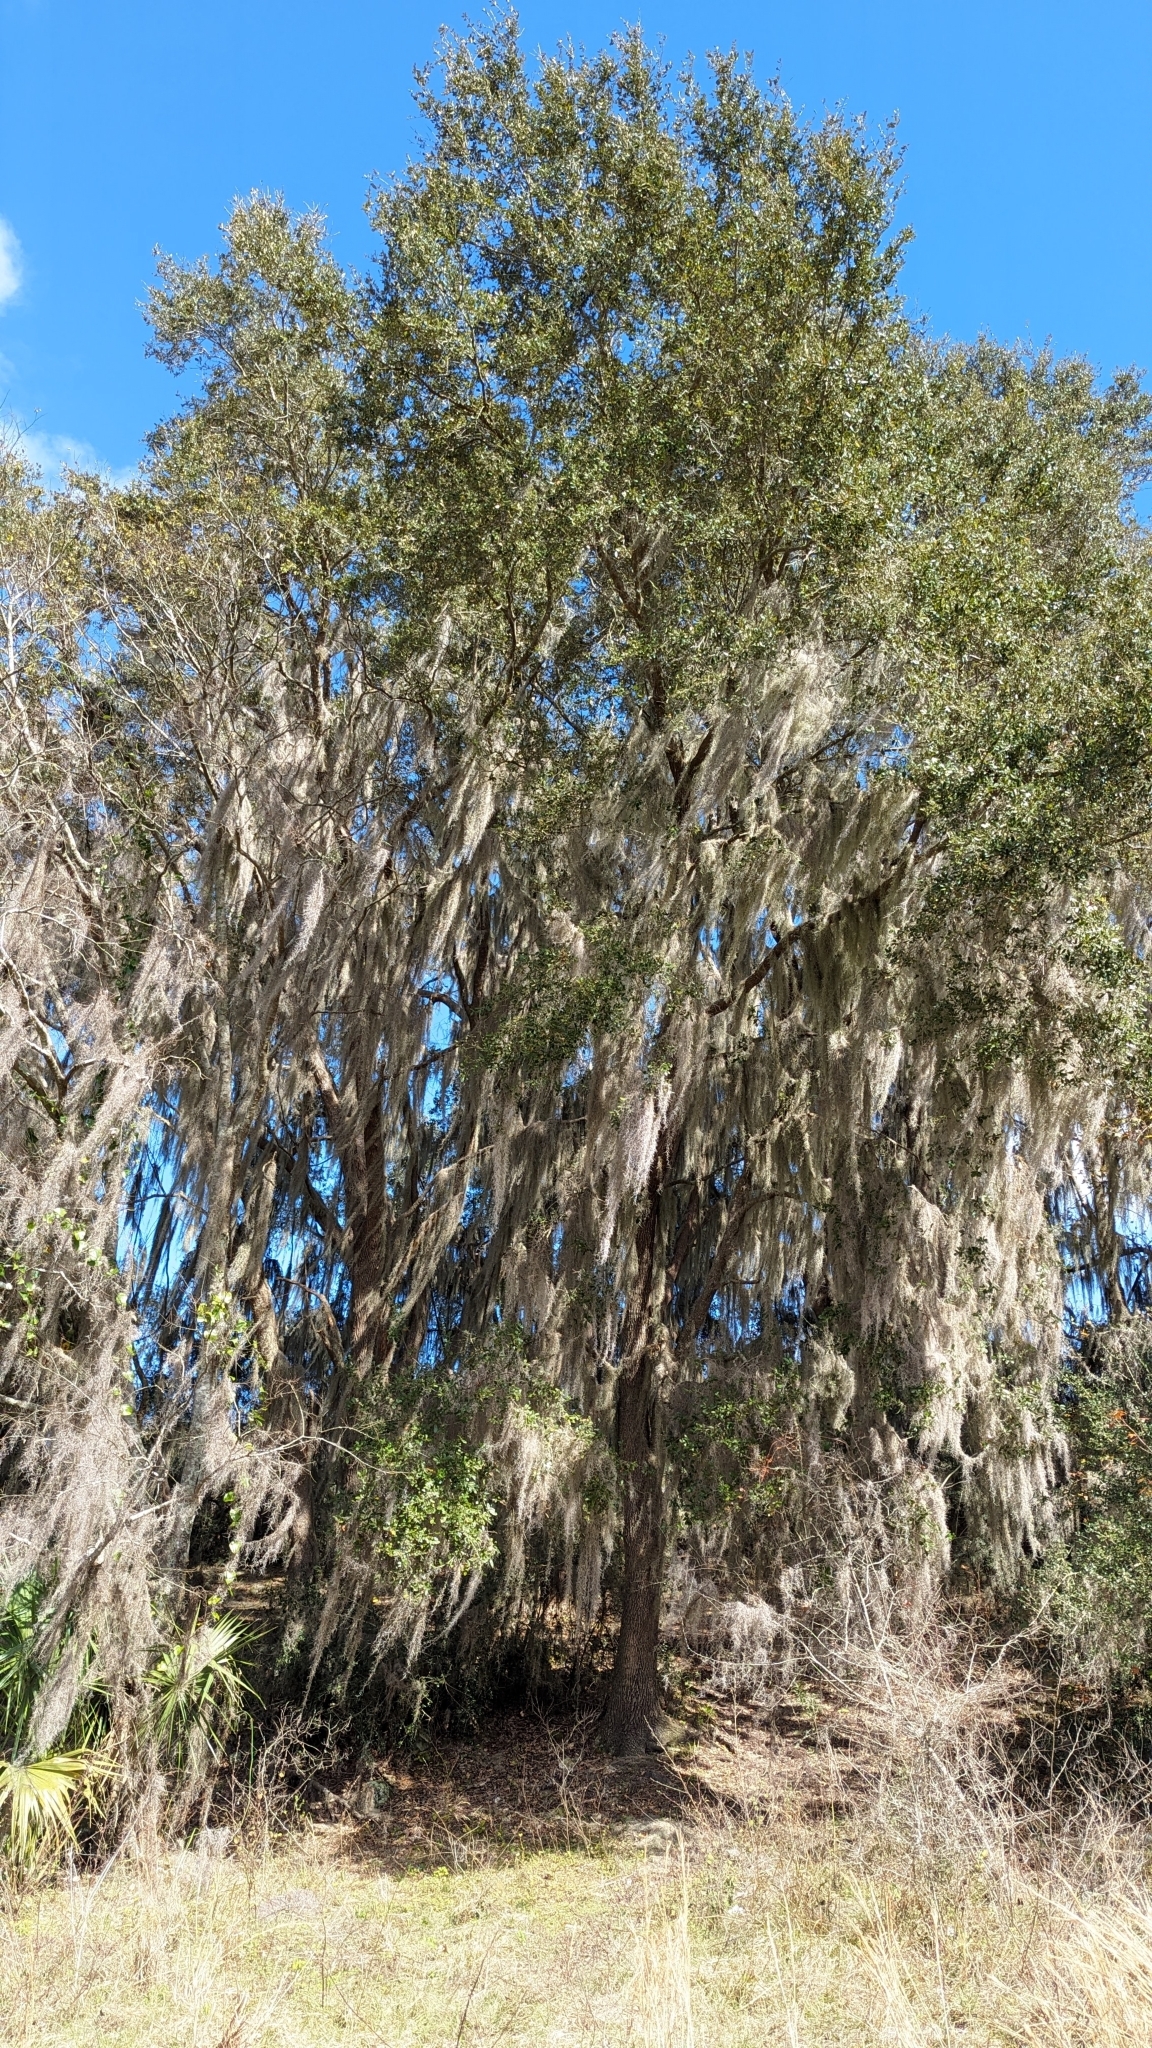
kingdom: Plantae
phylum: Tracheophyta
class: Magnoliopsida
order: Fagales
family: Fagaceae
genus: Quercus
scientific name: Quercus virginiana
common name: Southern live oak
